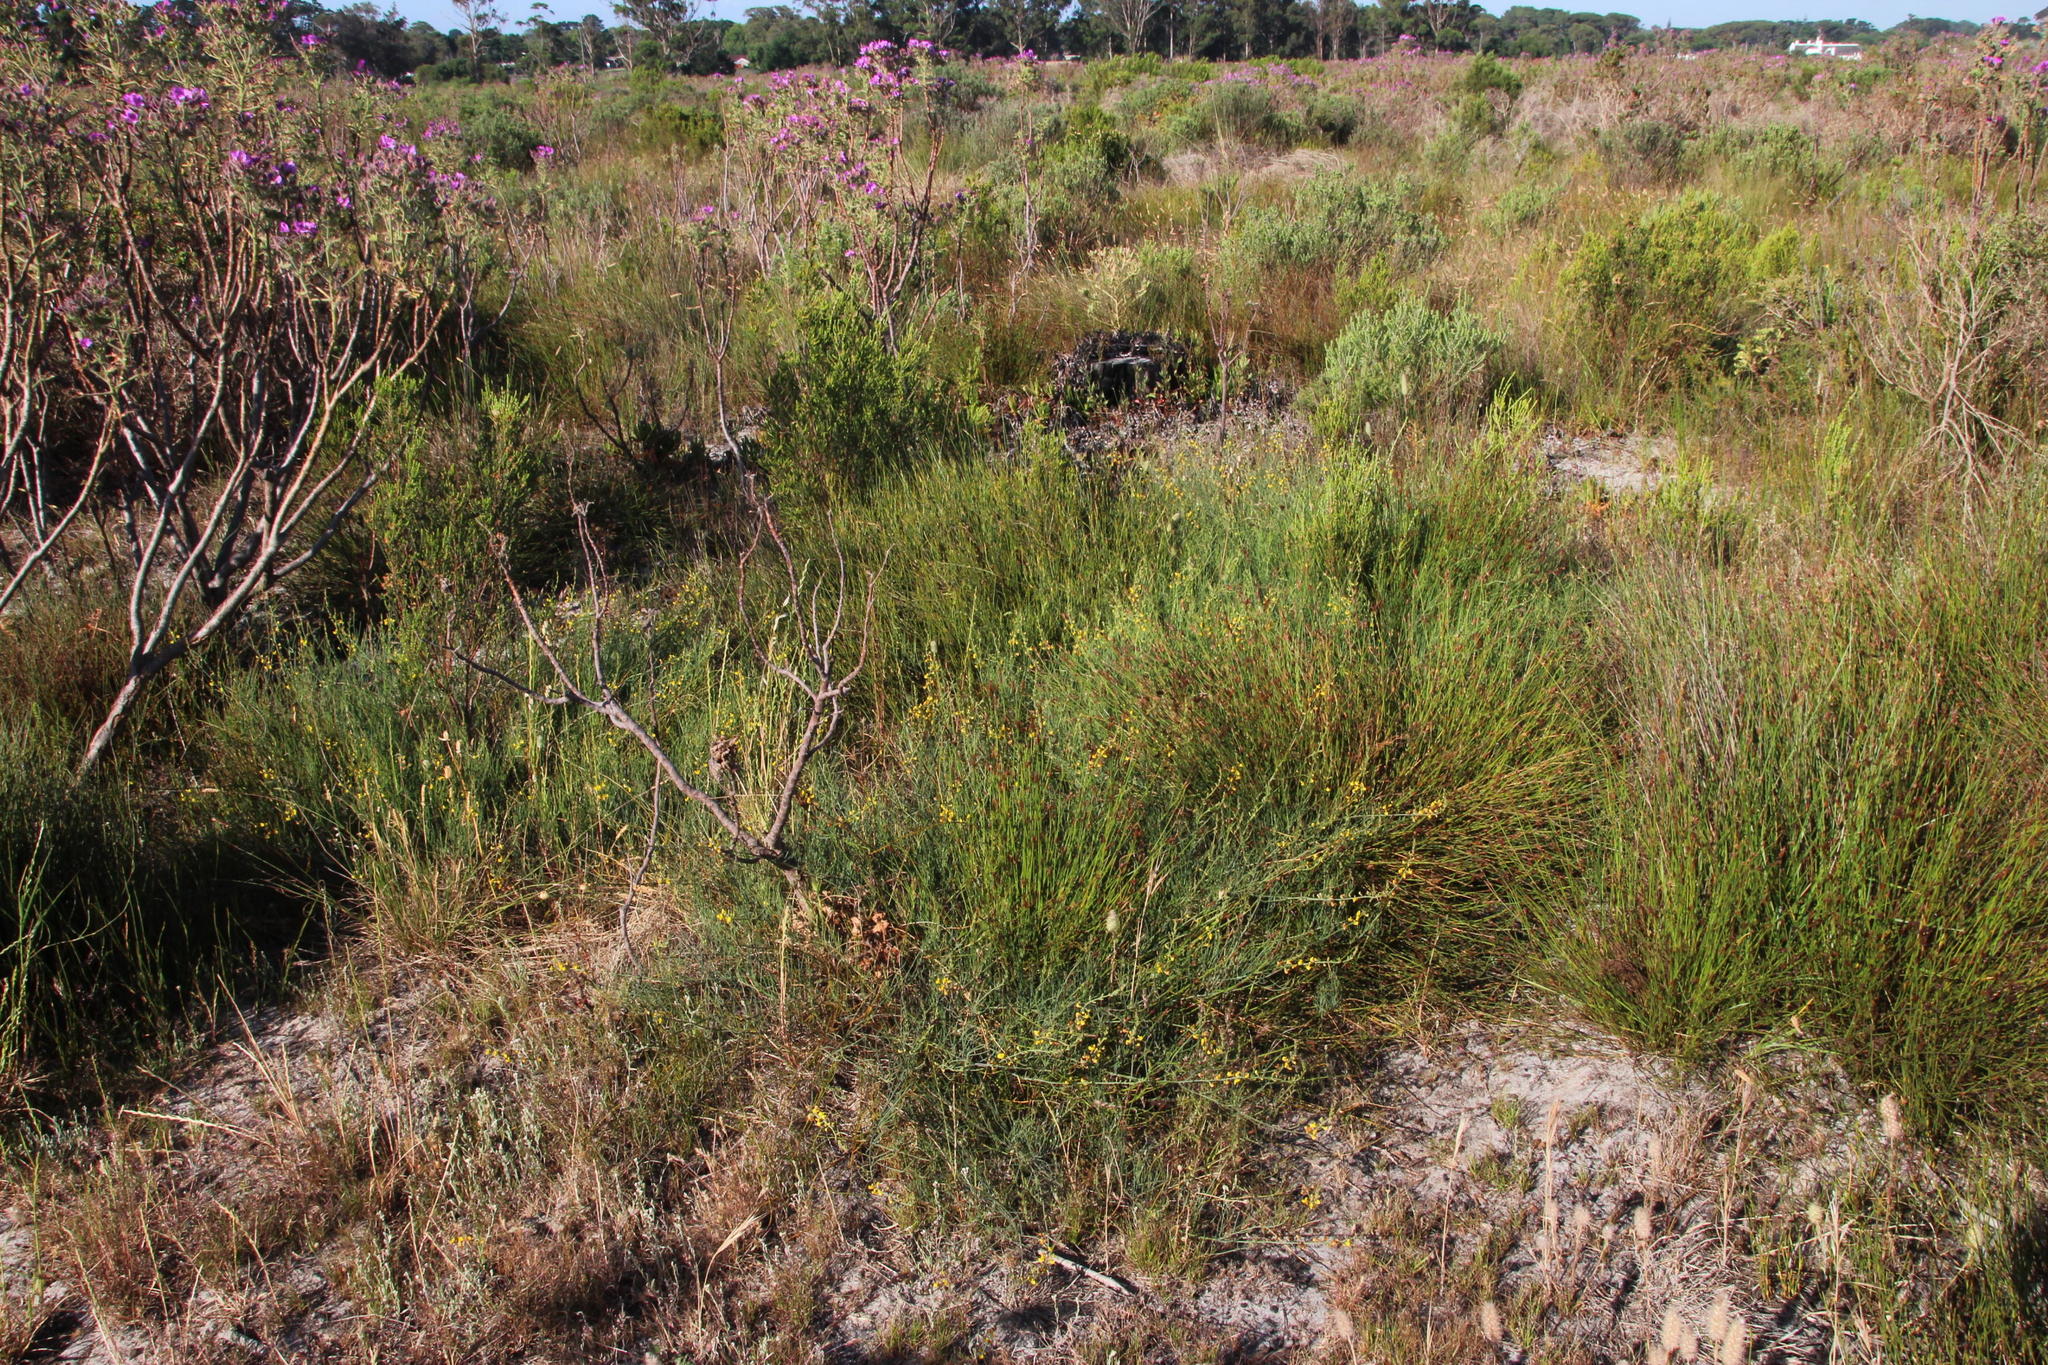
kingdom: Plantae
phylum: Tracheophyta
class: Magnoliopsida
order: Fabales
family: Fabaceae
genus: Lebeckia
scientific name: Lebeckia contaminata
